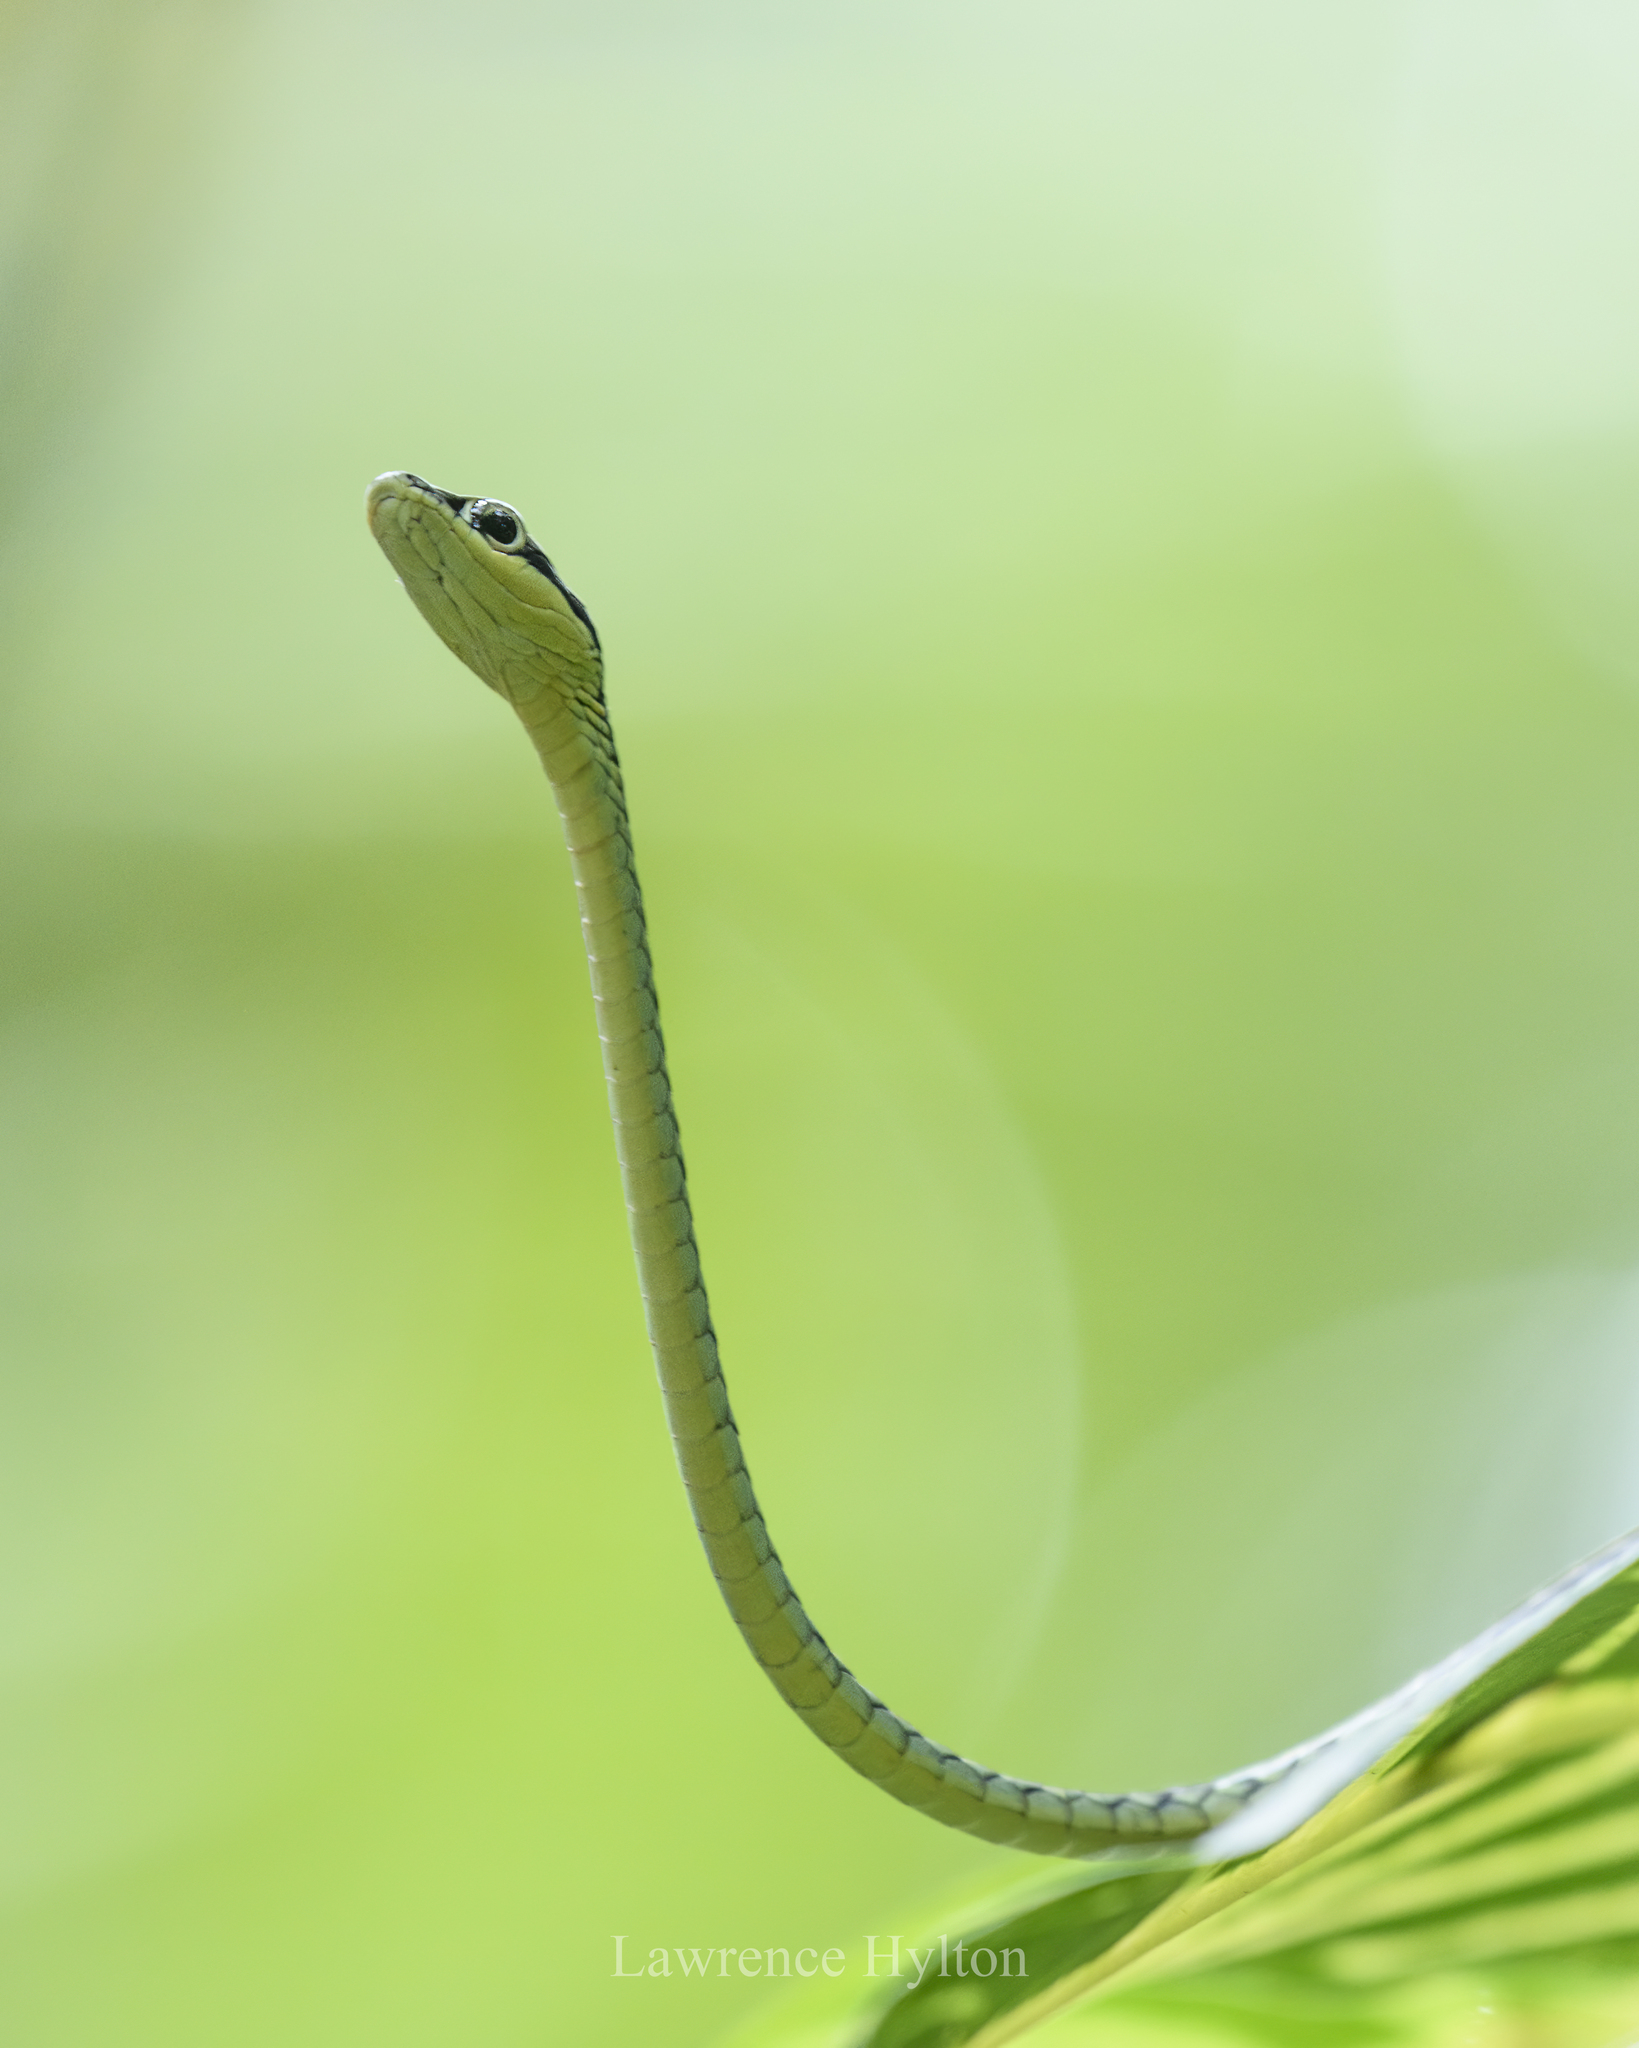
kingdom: Animalia
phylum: Chordata
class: Squamata
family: Colubridae
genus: Dendrelaphis
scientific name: Dendrelaphis haasi
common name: Haas�s bronzeback
